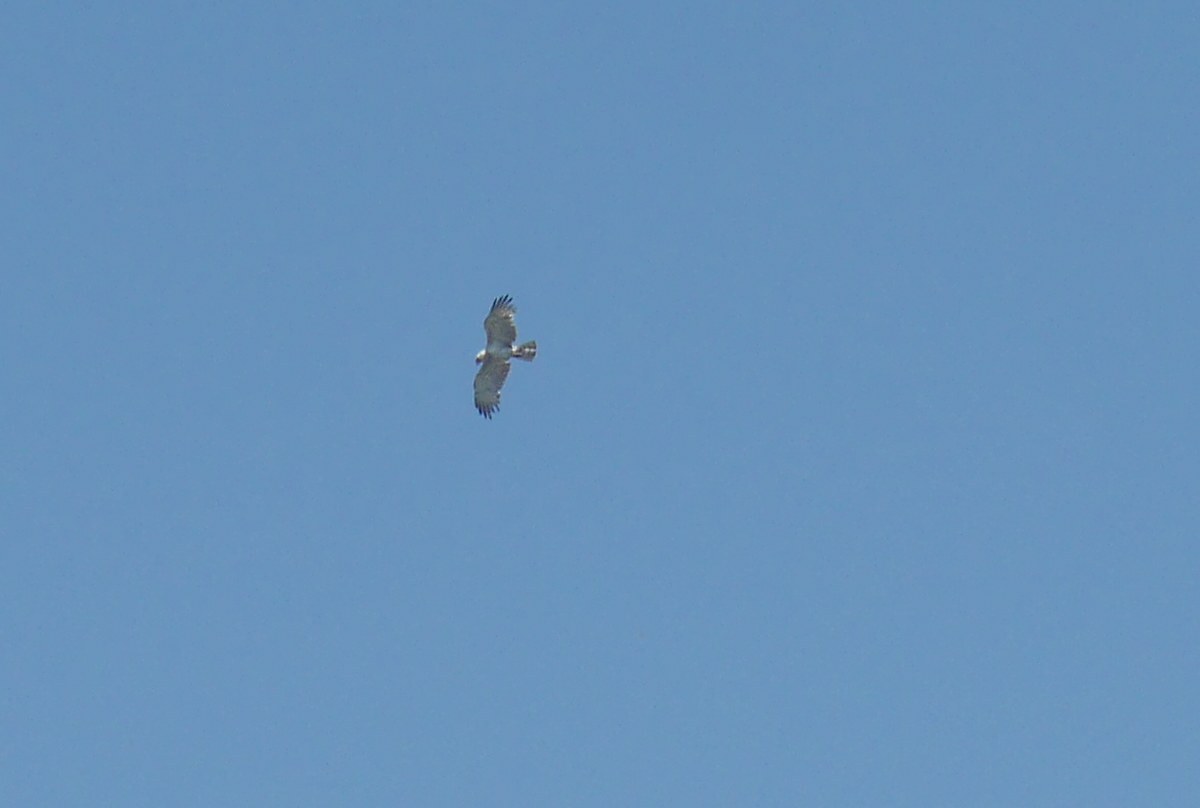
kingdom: Animalia
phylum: Chordata
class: Aves
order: Accipitriformes
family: Accipitridae
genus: Circaetus
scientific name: Circaetus gallicus
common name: Short-toed snake eagle
